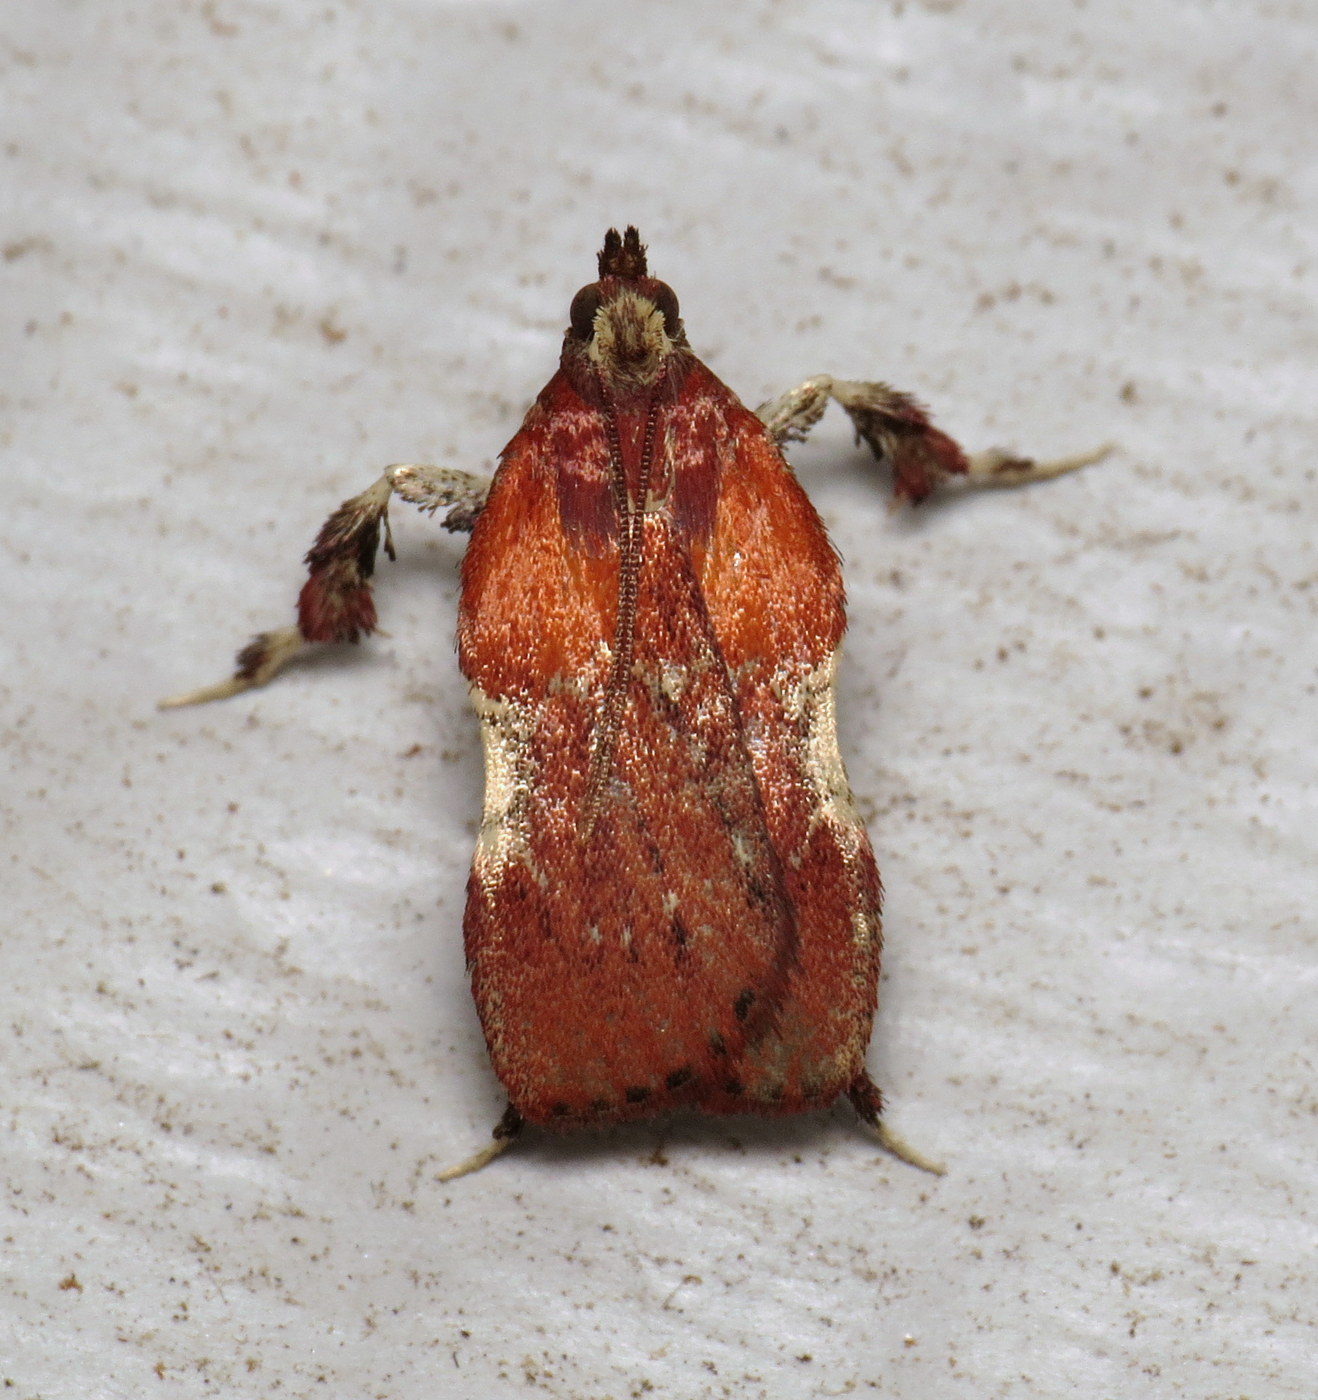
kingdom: Animalia
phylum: Arthropoda
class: Insecta
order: Lepidoptera
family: Pyralidae
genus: Galasa
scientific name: Galasa nigrinodis
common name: Boxwood leaftier moth
